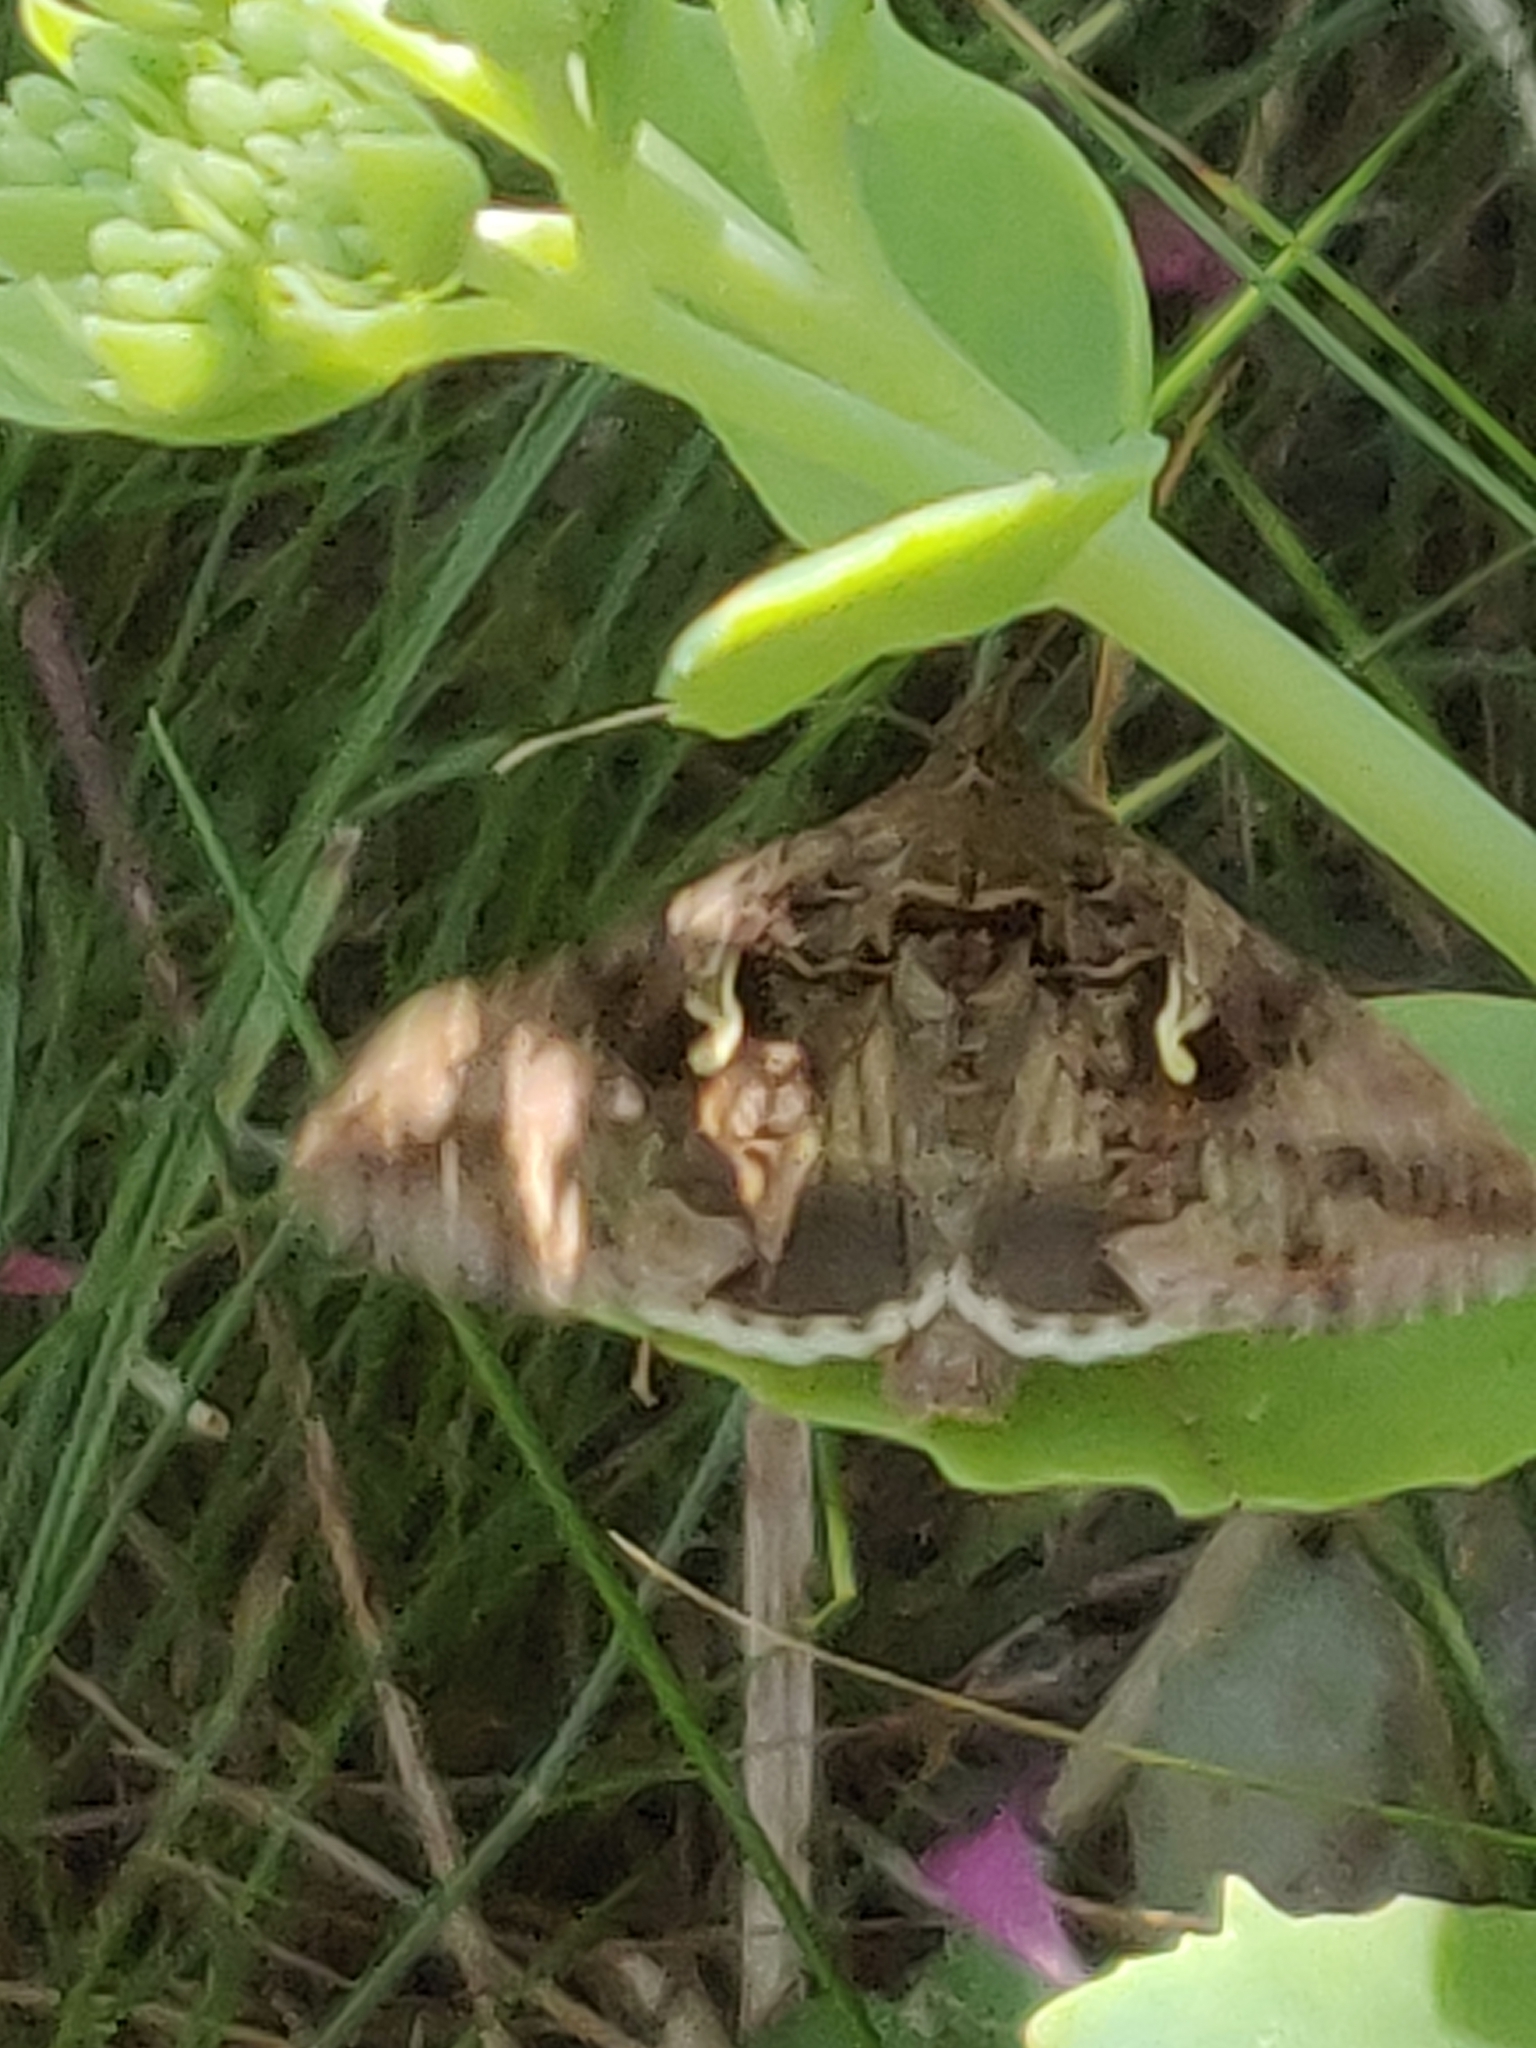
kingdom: Animalia
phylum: Arthropoda
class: Insecta
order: Lepidoptera
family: Noctuidae
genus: Autographa
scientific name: Autographa gamma
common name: Silver y
